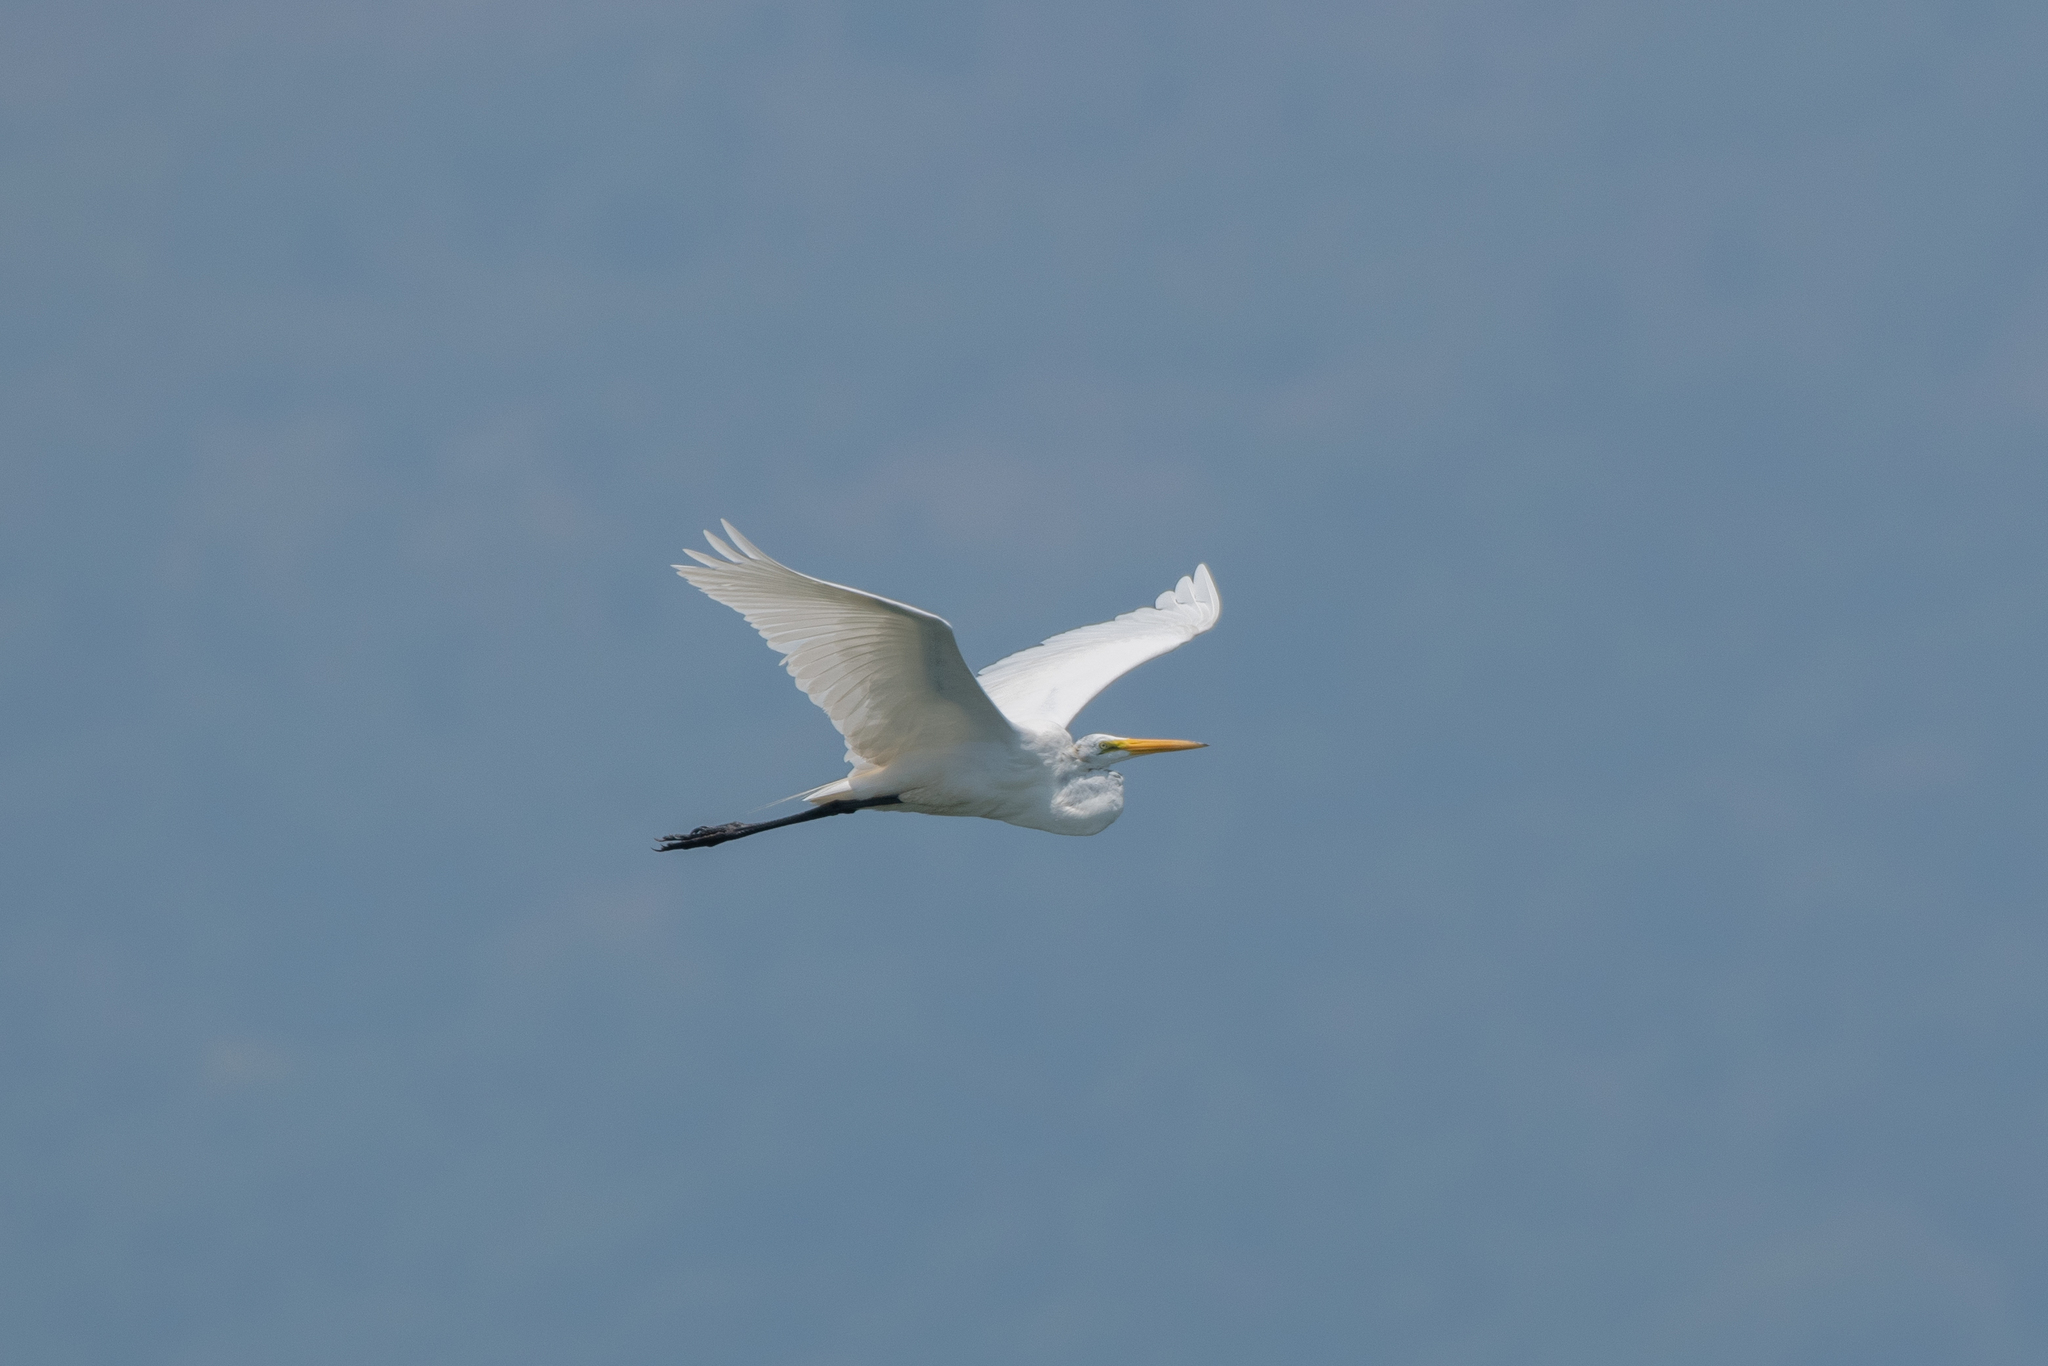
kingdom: Animalia
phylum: Chordata
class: Aves
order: Pelecaniformes
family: Ardeidae
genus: Ardea
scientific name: Ardea alba
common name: Great egret
